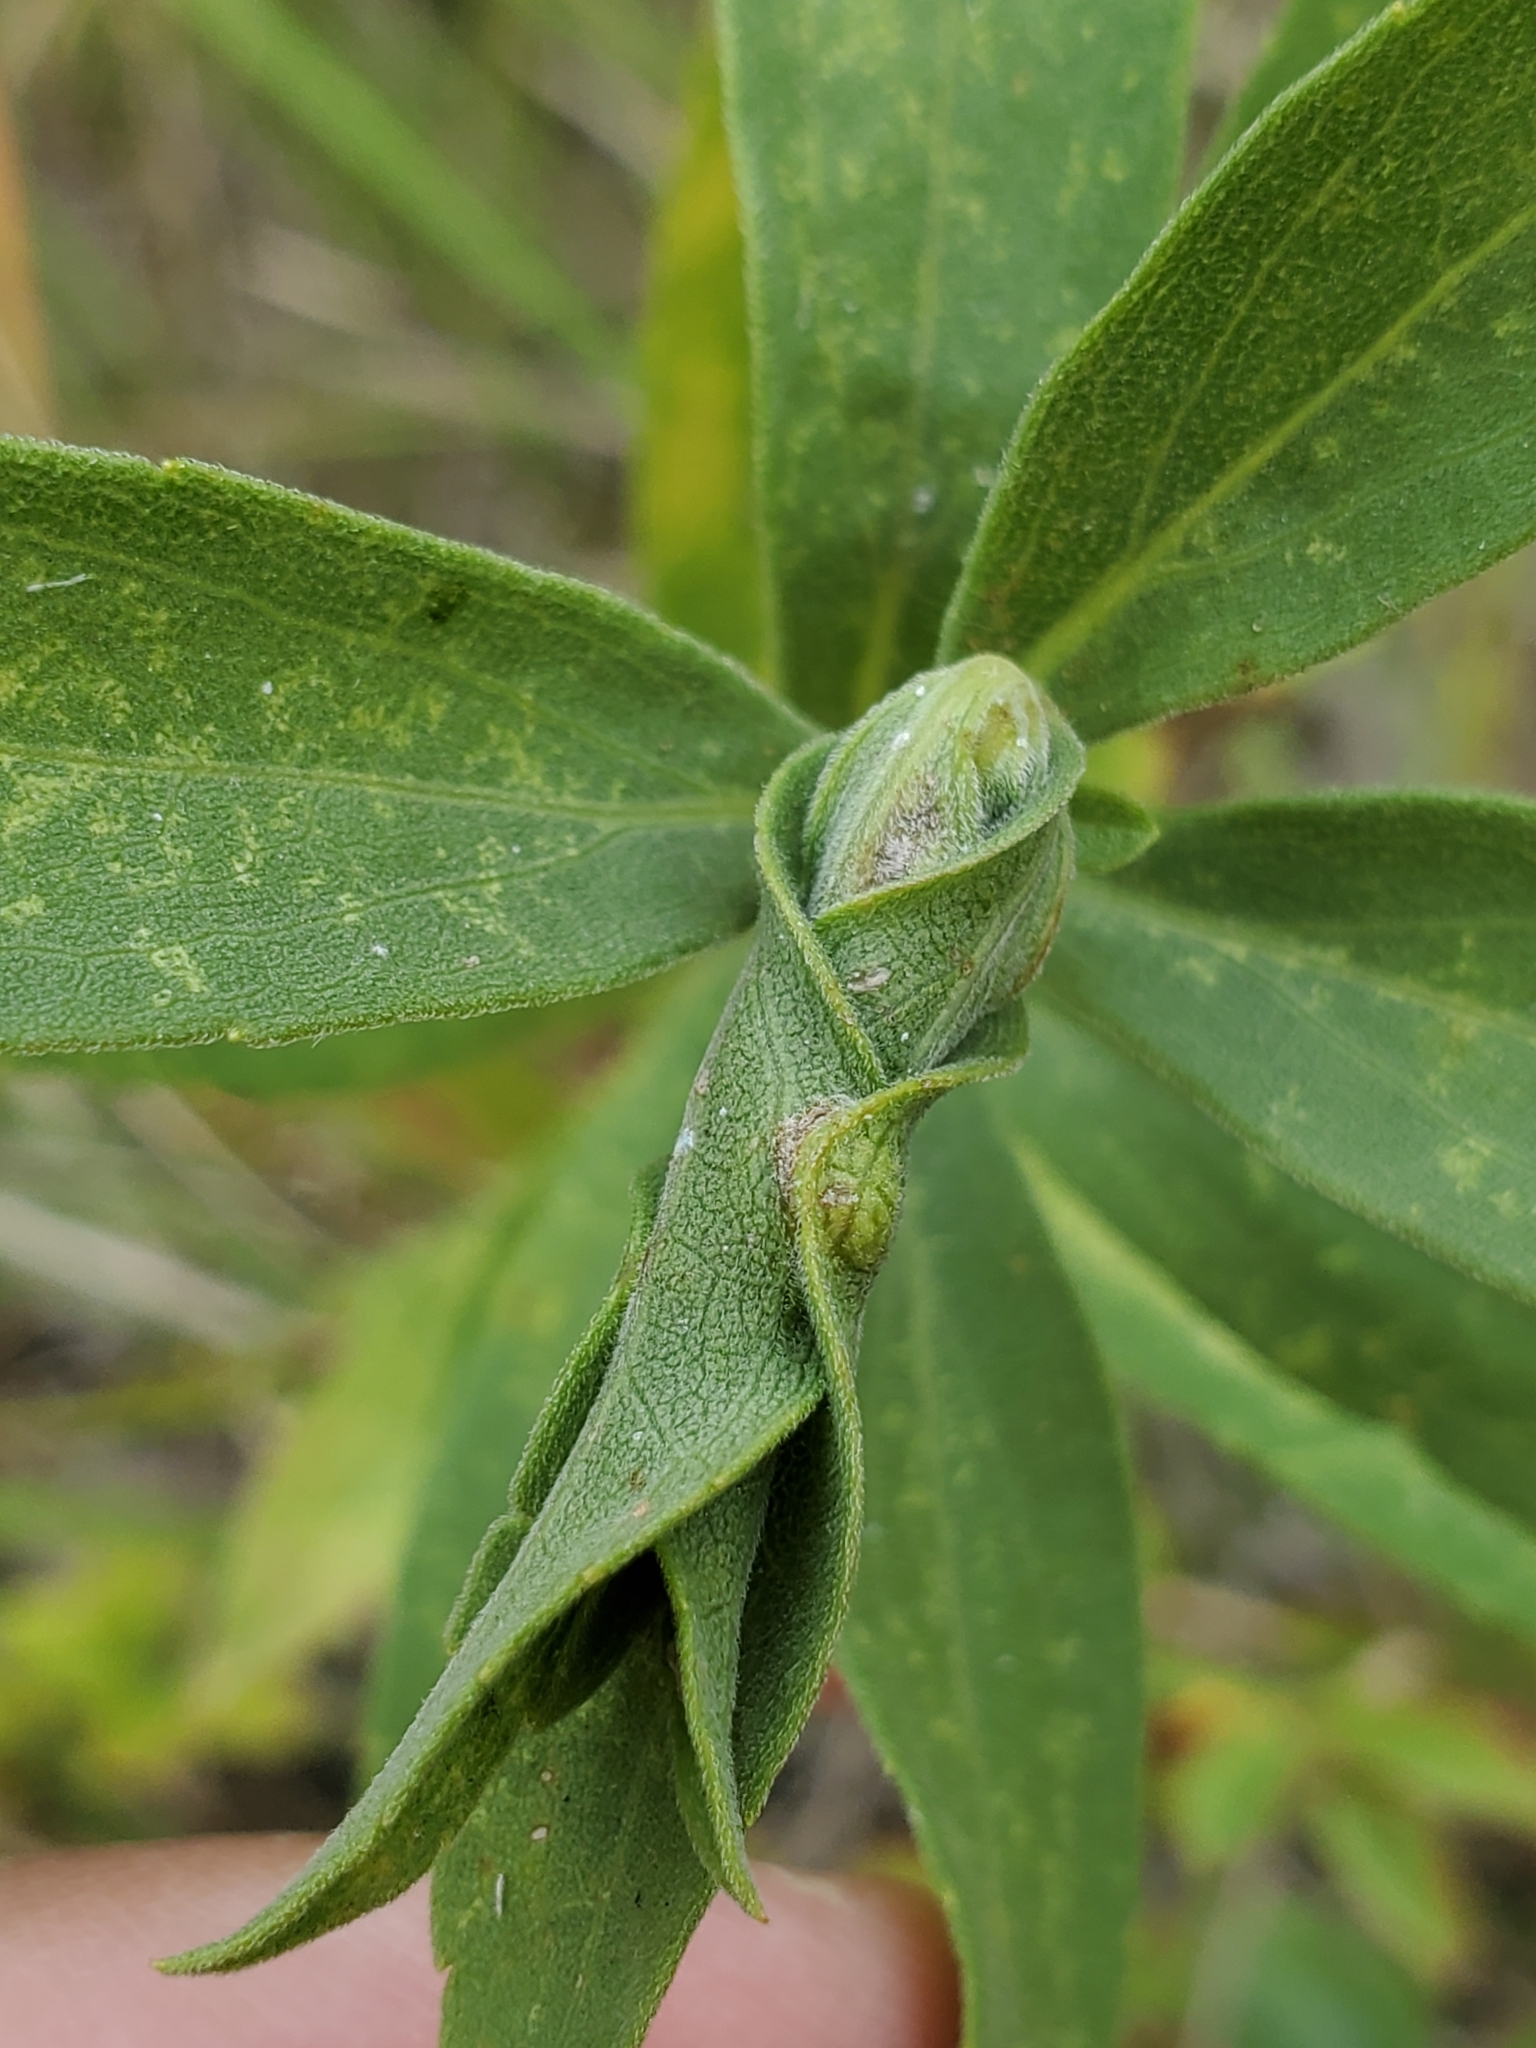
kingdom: Animalia
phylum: Arthropoda
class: Insecta
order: Diptera
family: Cecidomyiidae
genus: Asphondylia
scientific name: Asphondylia solidaginis
